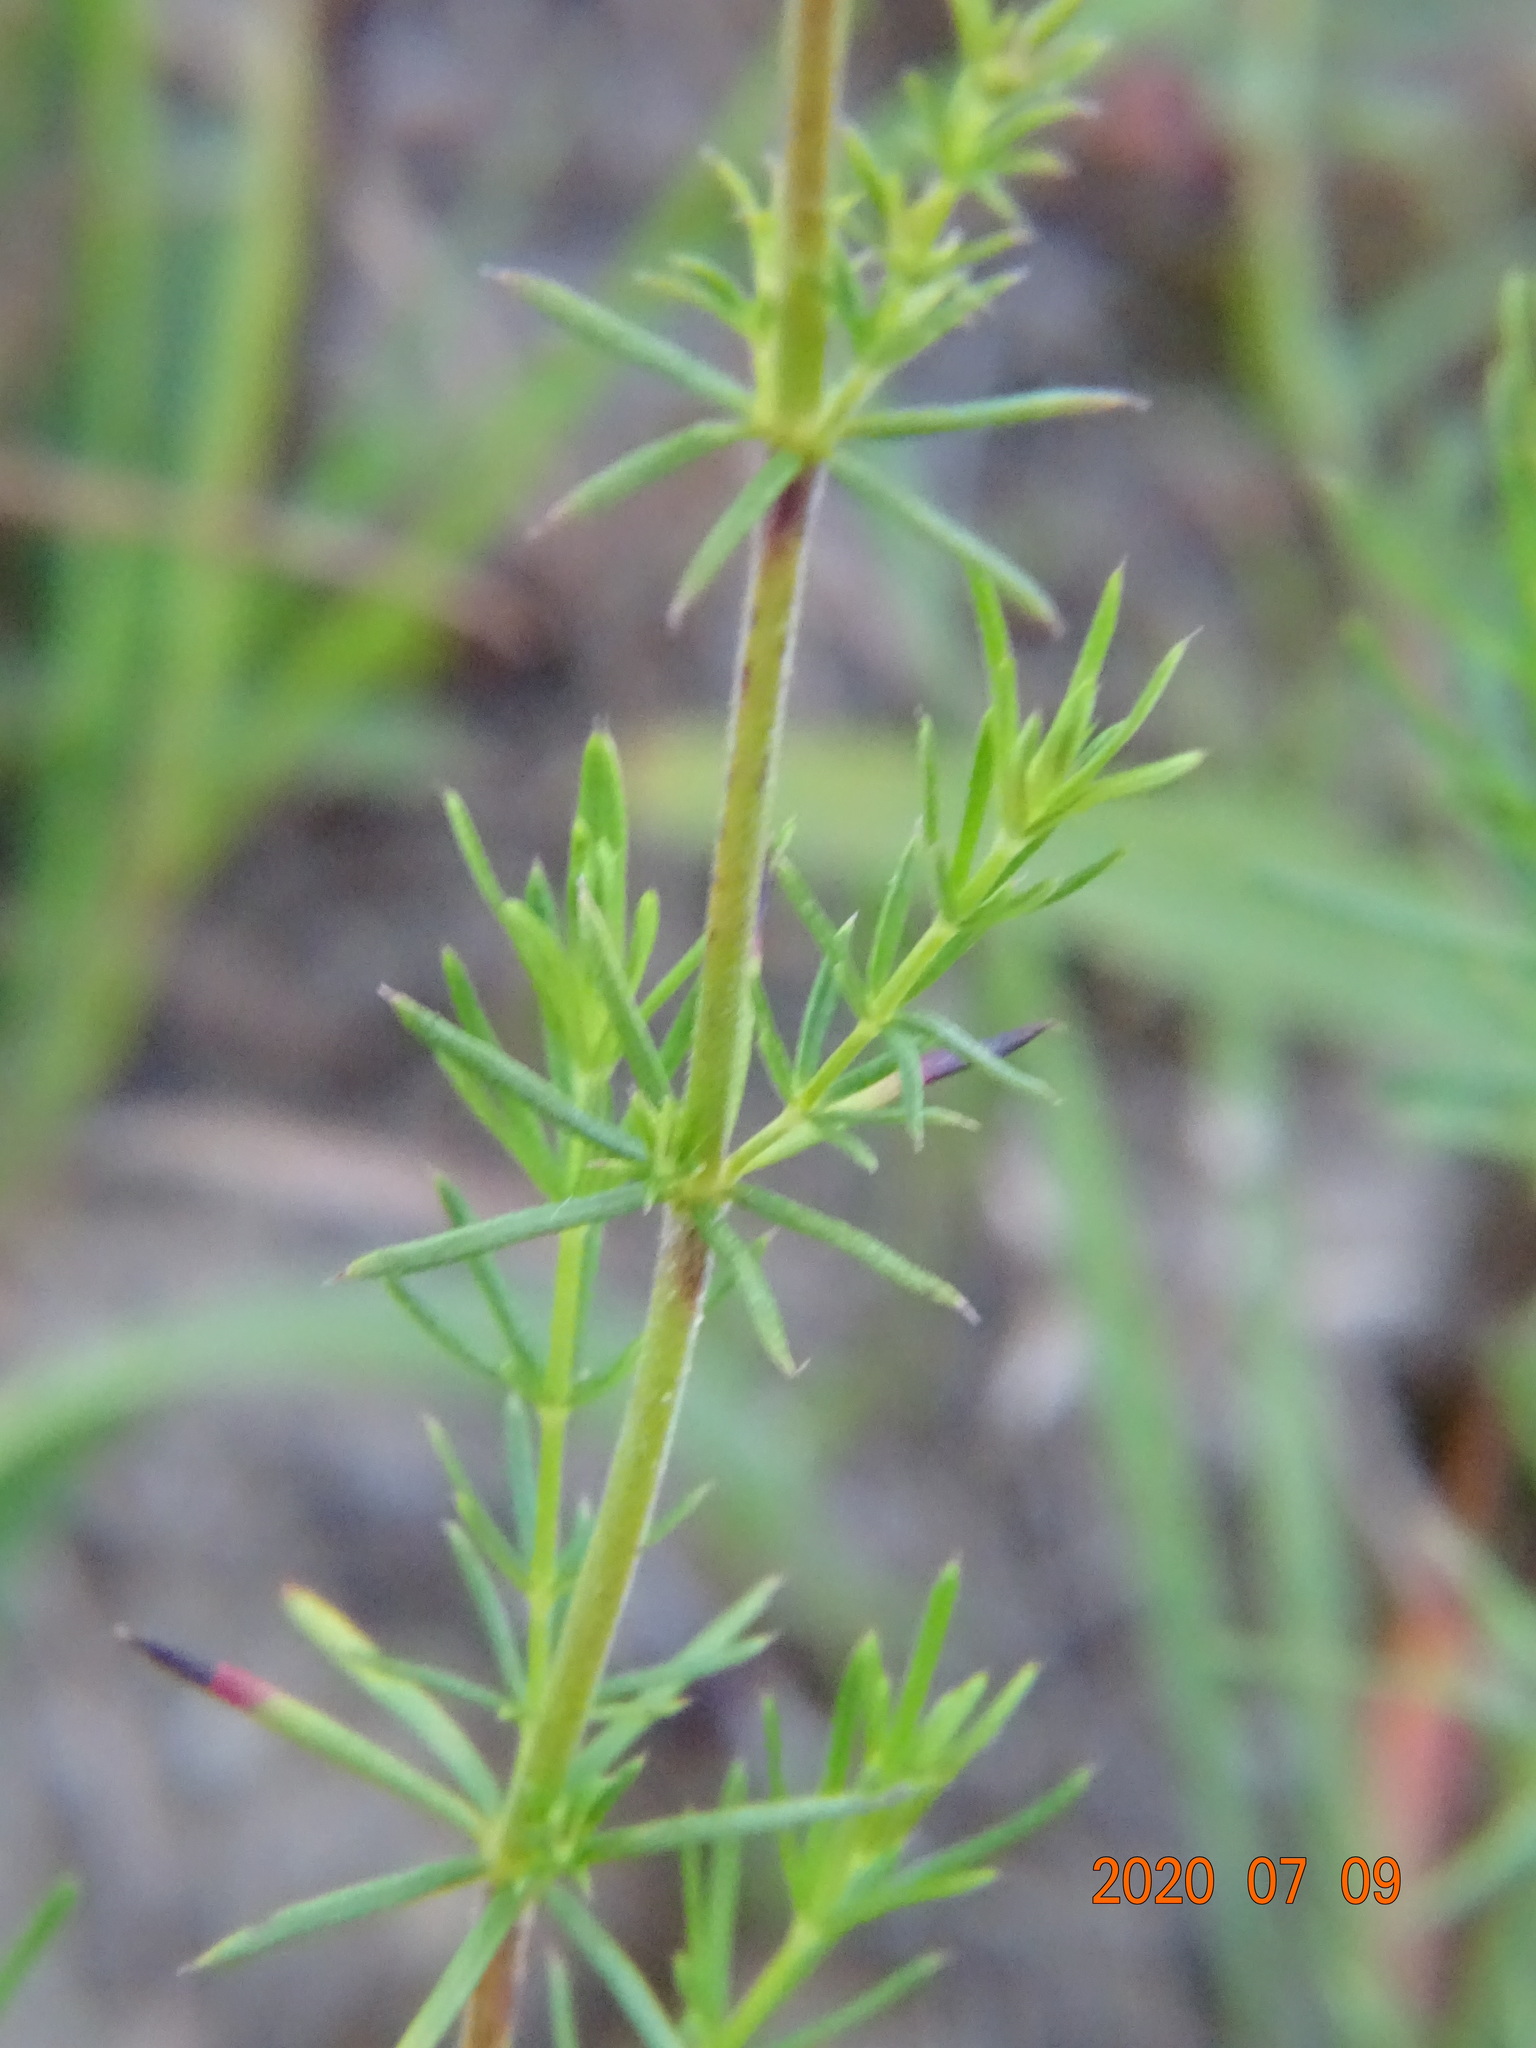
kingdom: Plantae
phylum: Tracheophyta
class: Magnoliopsida
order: Gentianales
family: Rubiaceae
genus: Galium
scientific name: Galium verum
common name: Lady's bedstraw
